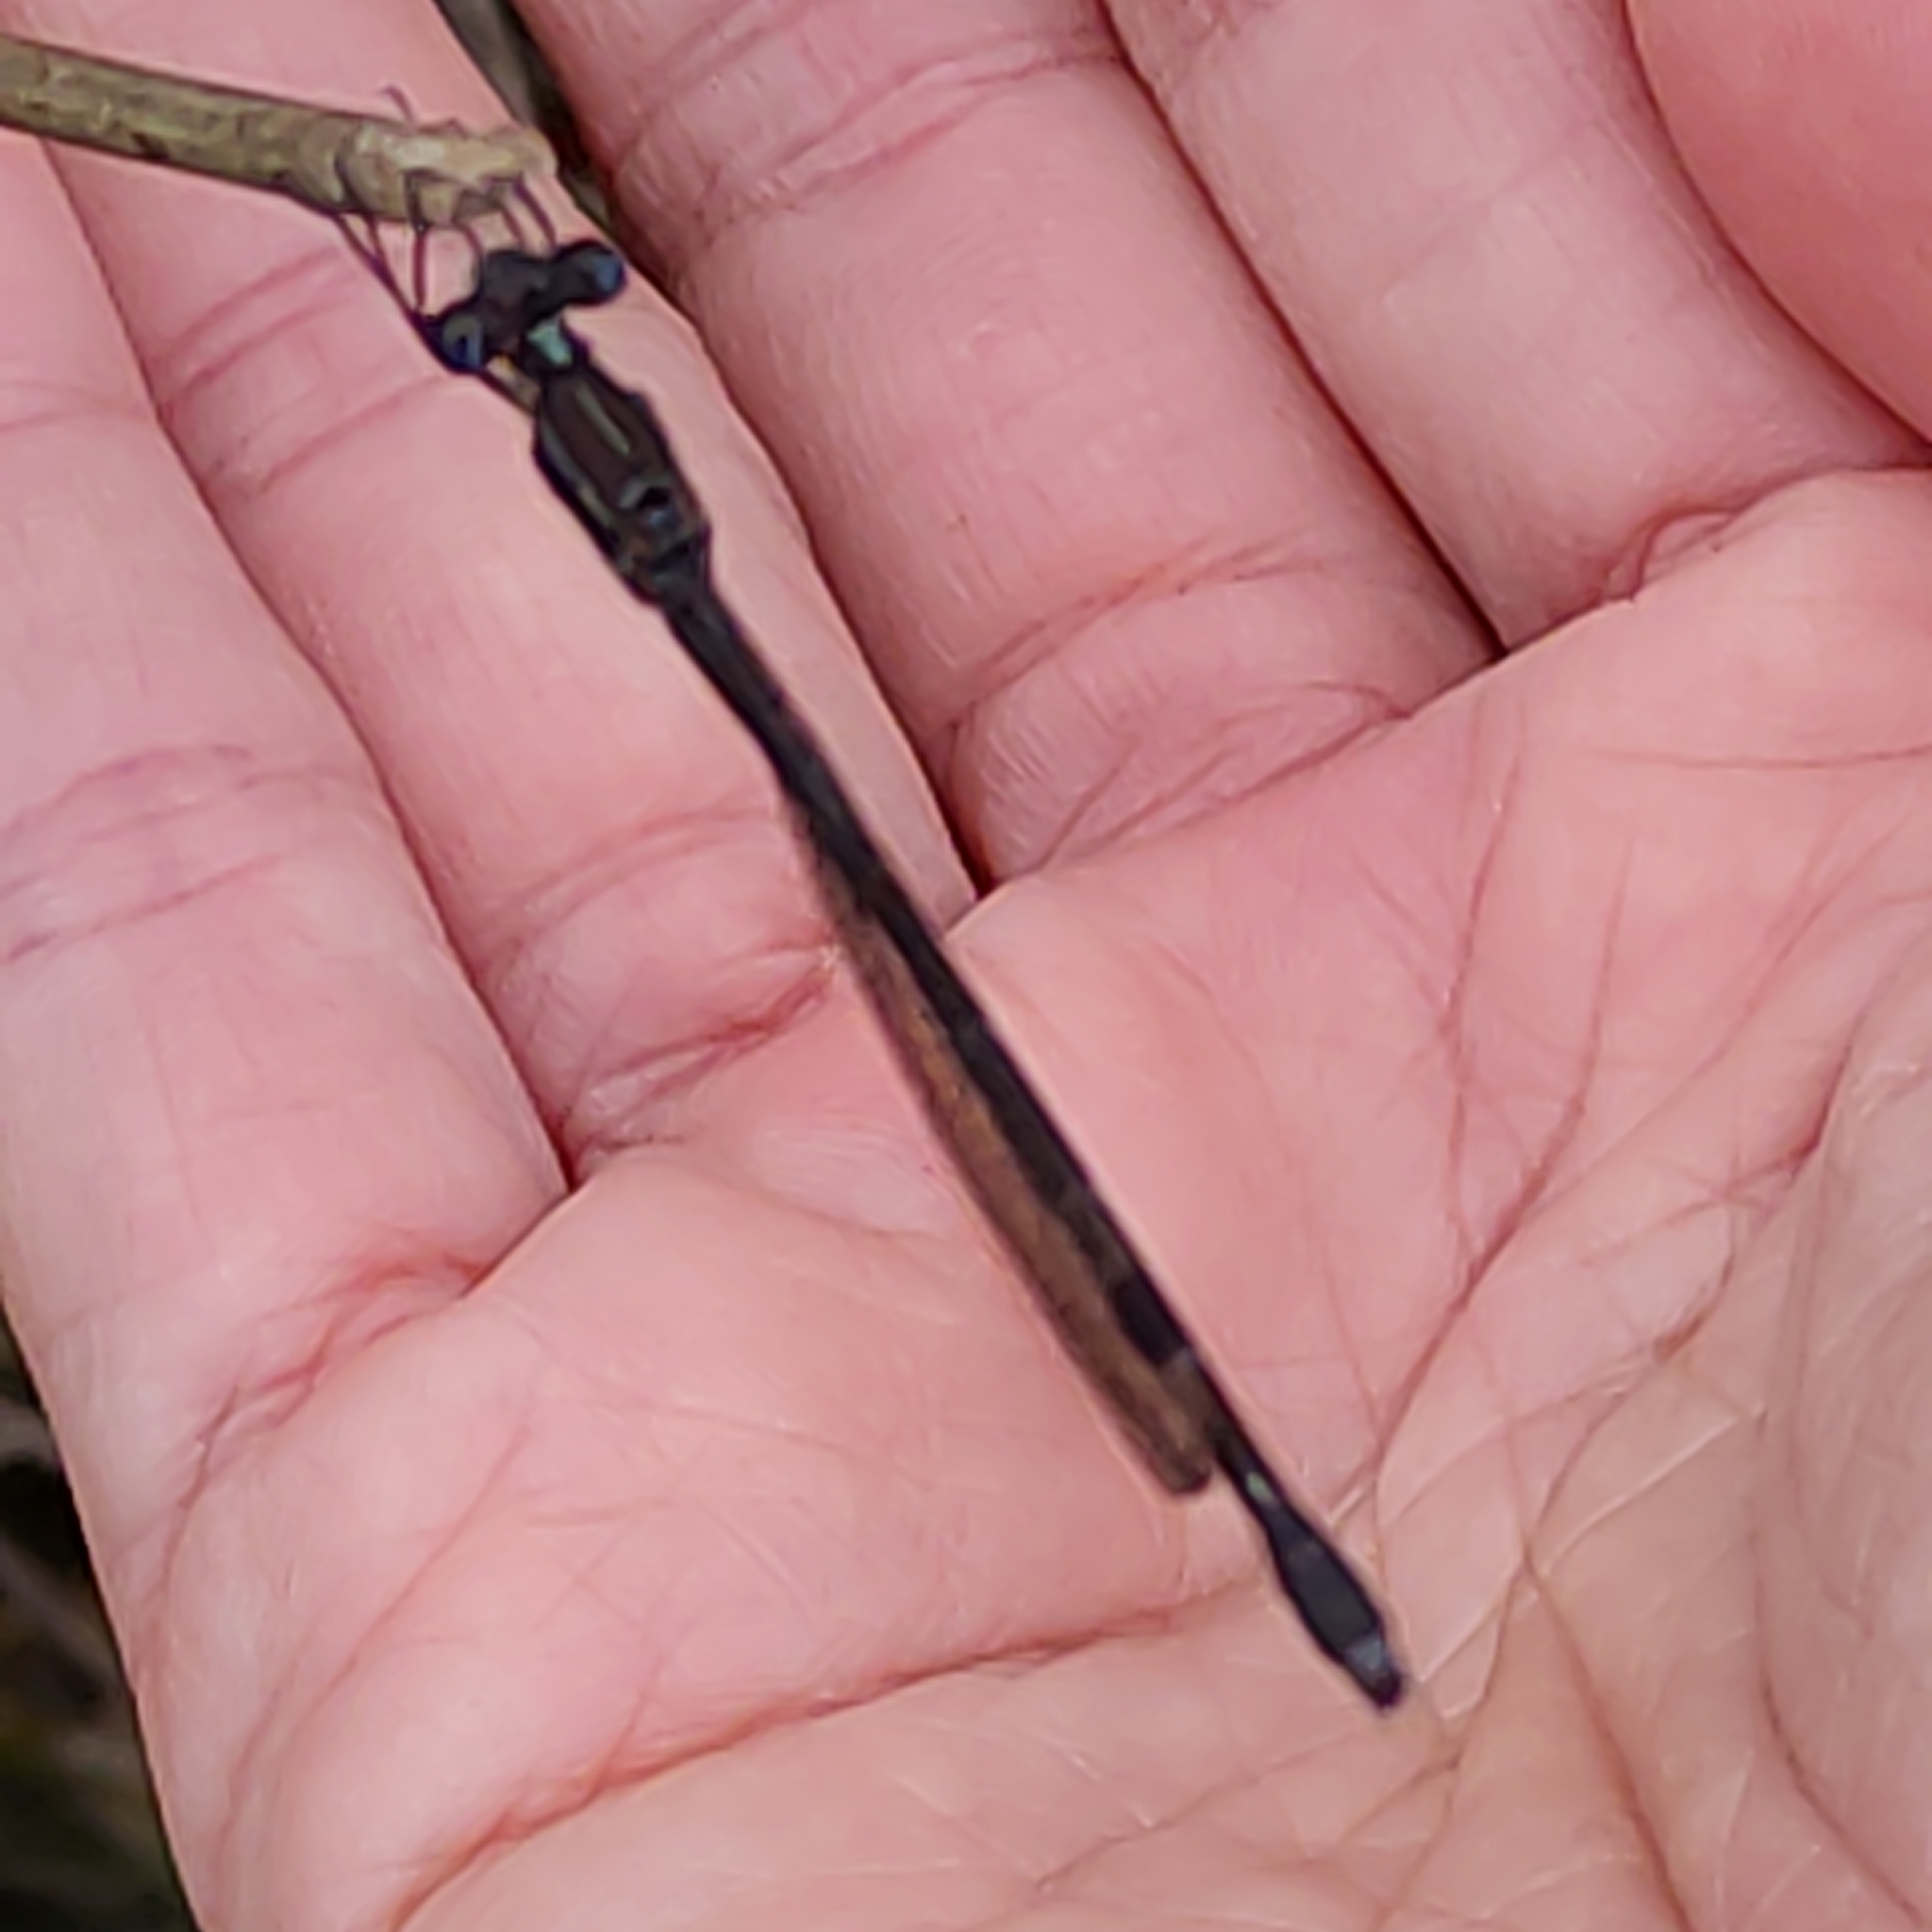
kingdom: Animalia
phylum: Arthropoda
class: Insecta
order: Odonata
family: Lestidae
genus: Austrolestes
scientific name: Austrolestes colensonis
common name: Blue damselfly
